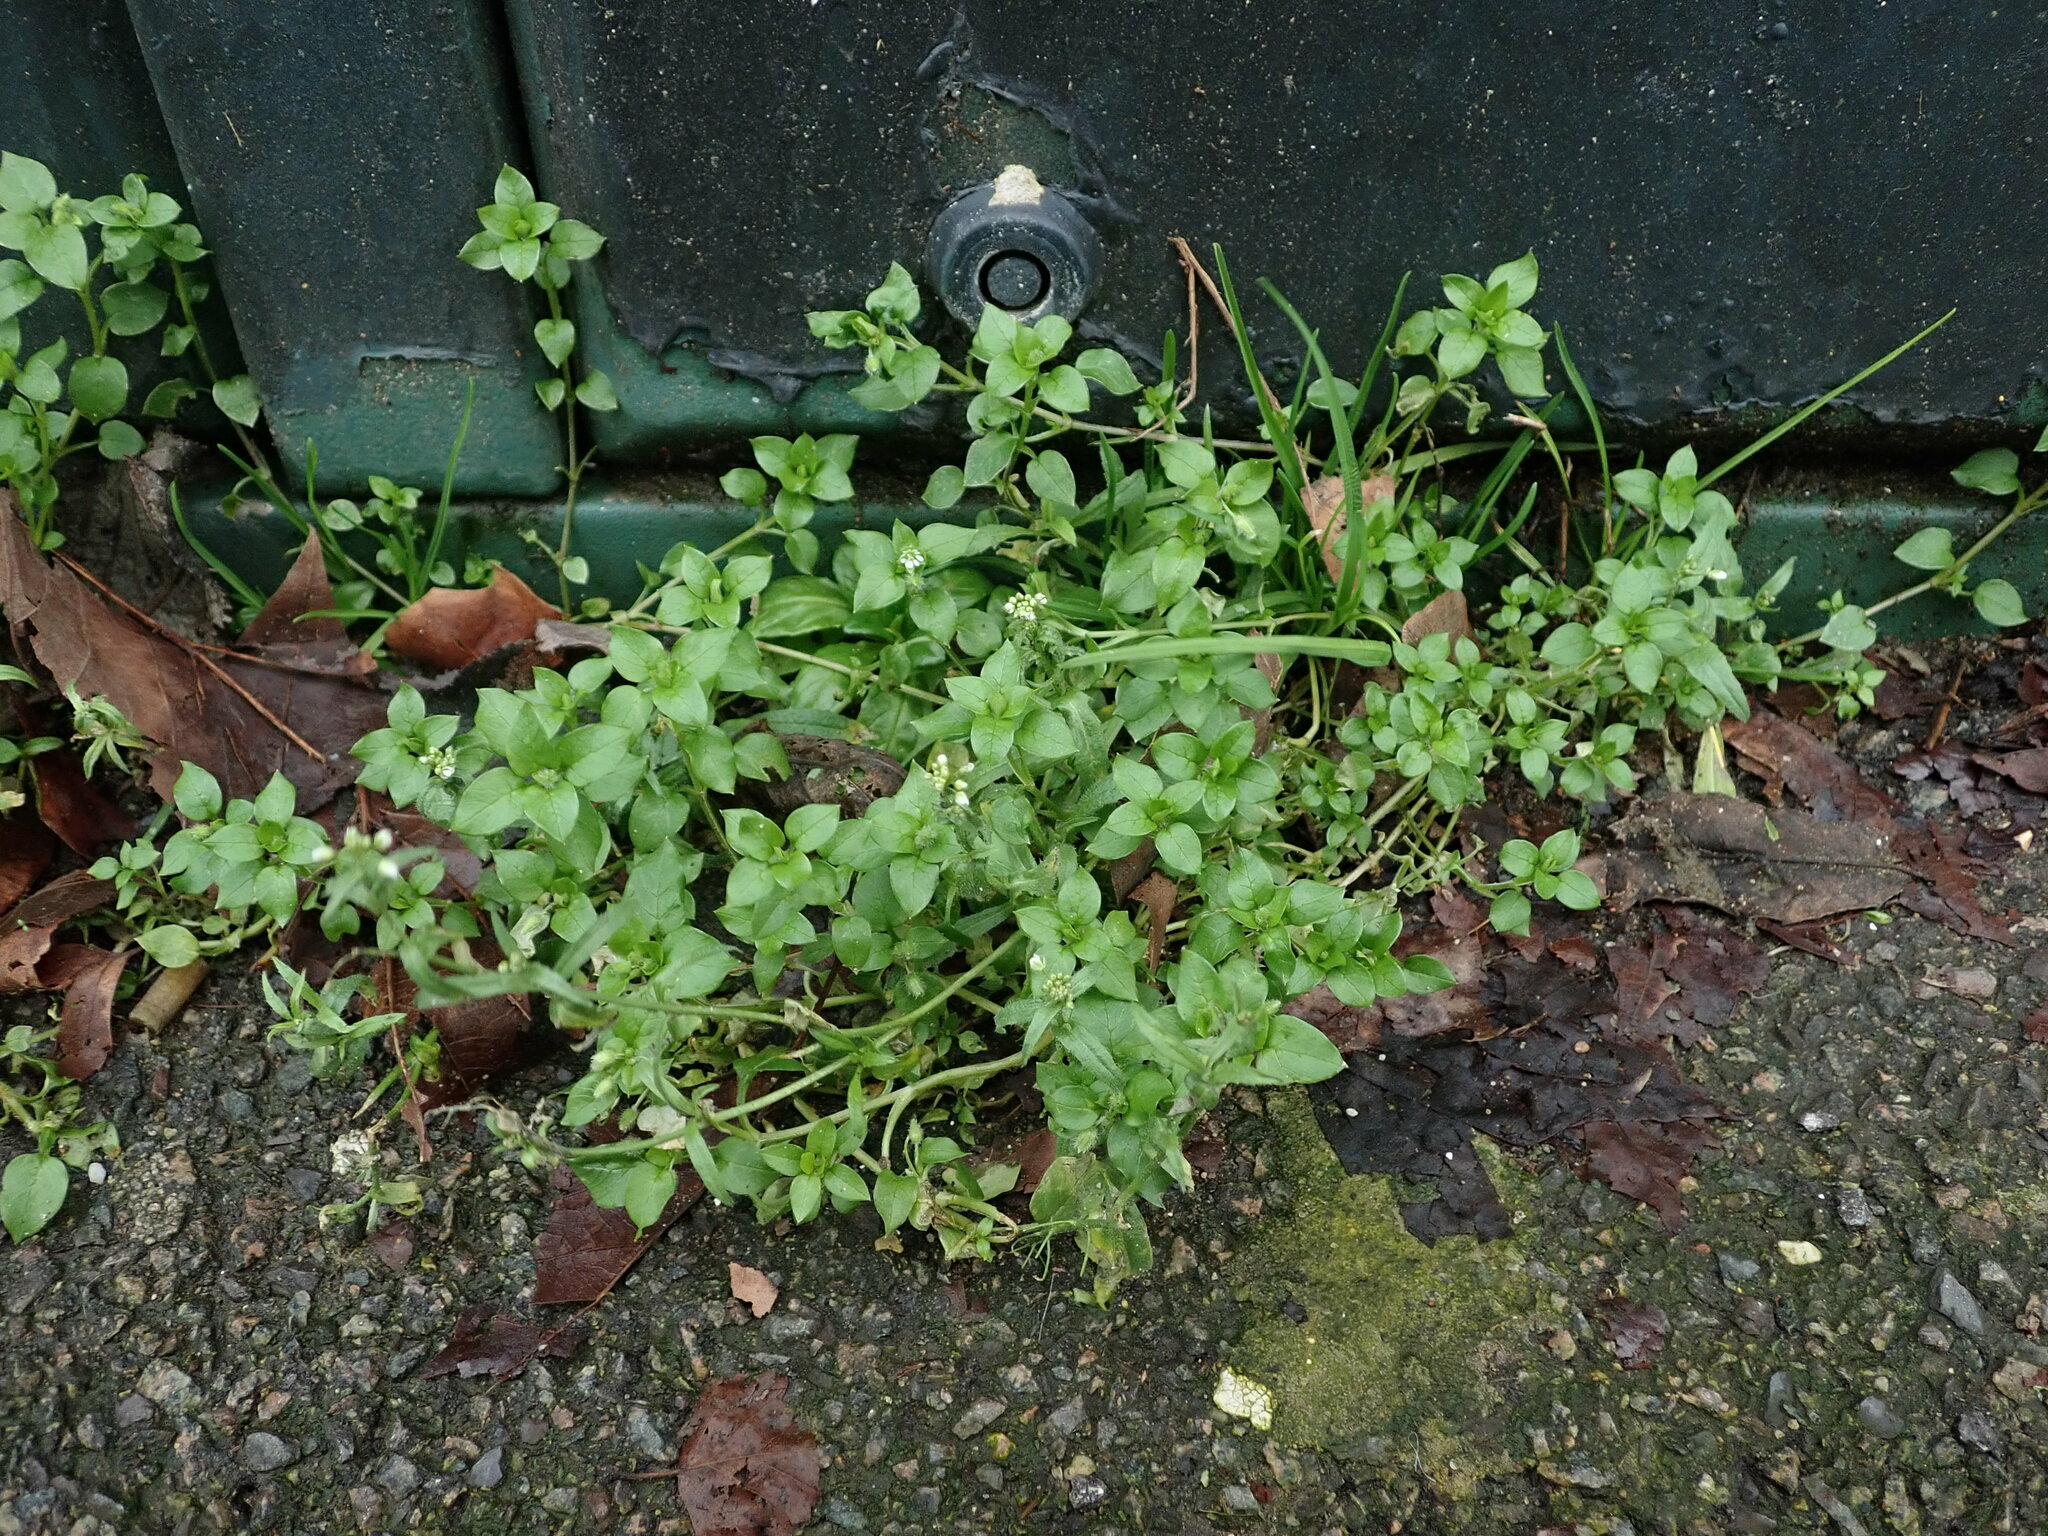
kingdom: Plantae
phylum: Tracheophyta
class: Magnoliopsida
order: Caryophyllales
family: Caryophyllaceae
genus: Stellaria
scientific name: Stellaria media
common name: Common chickweed
